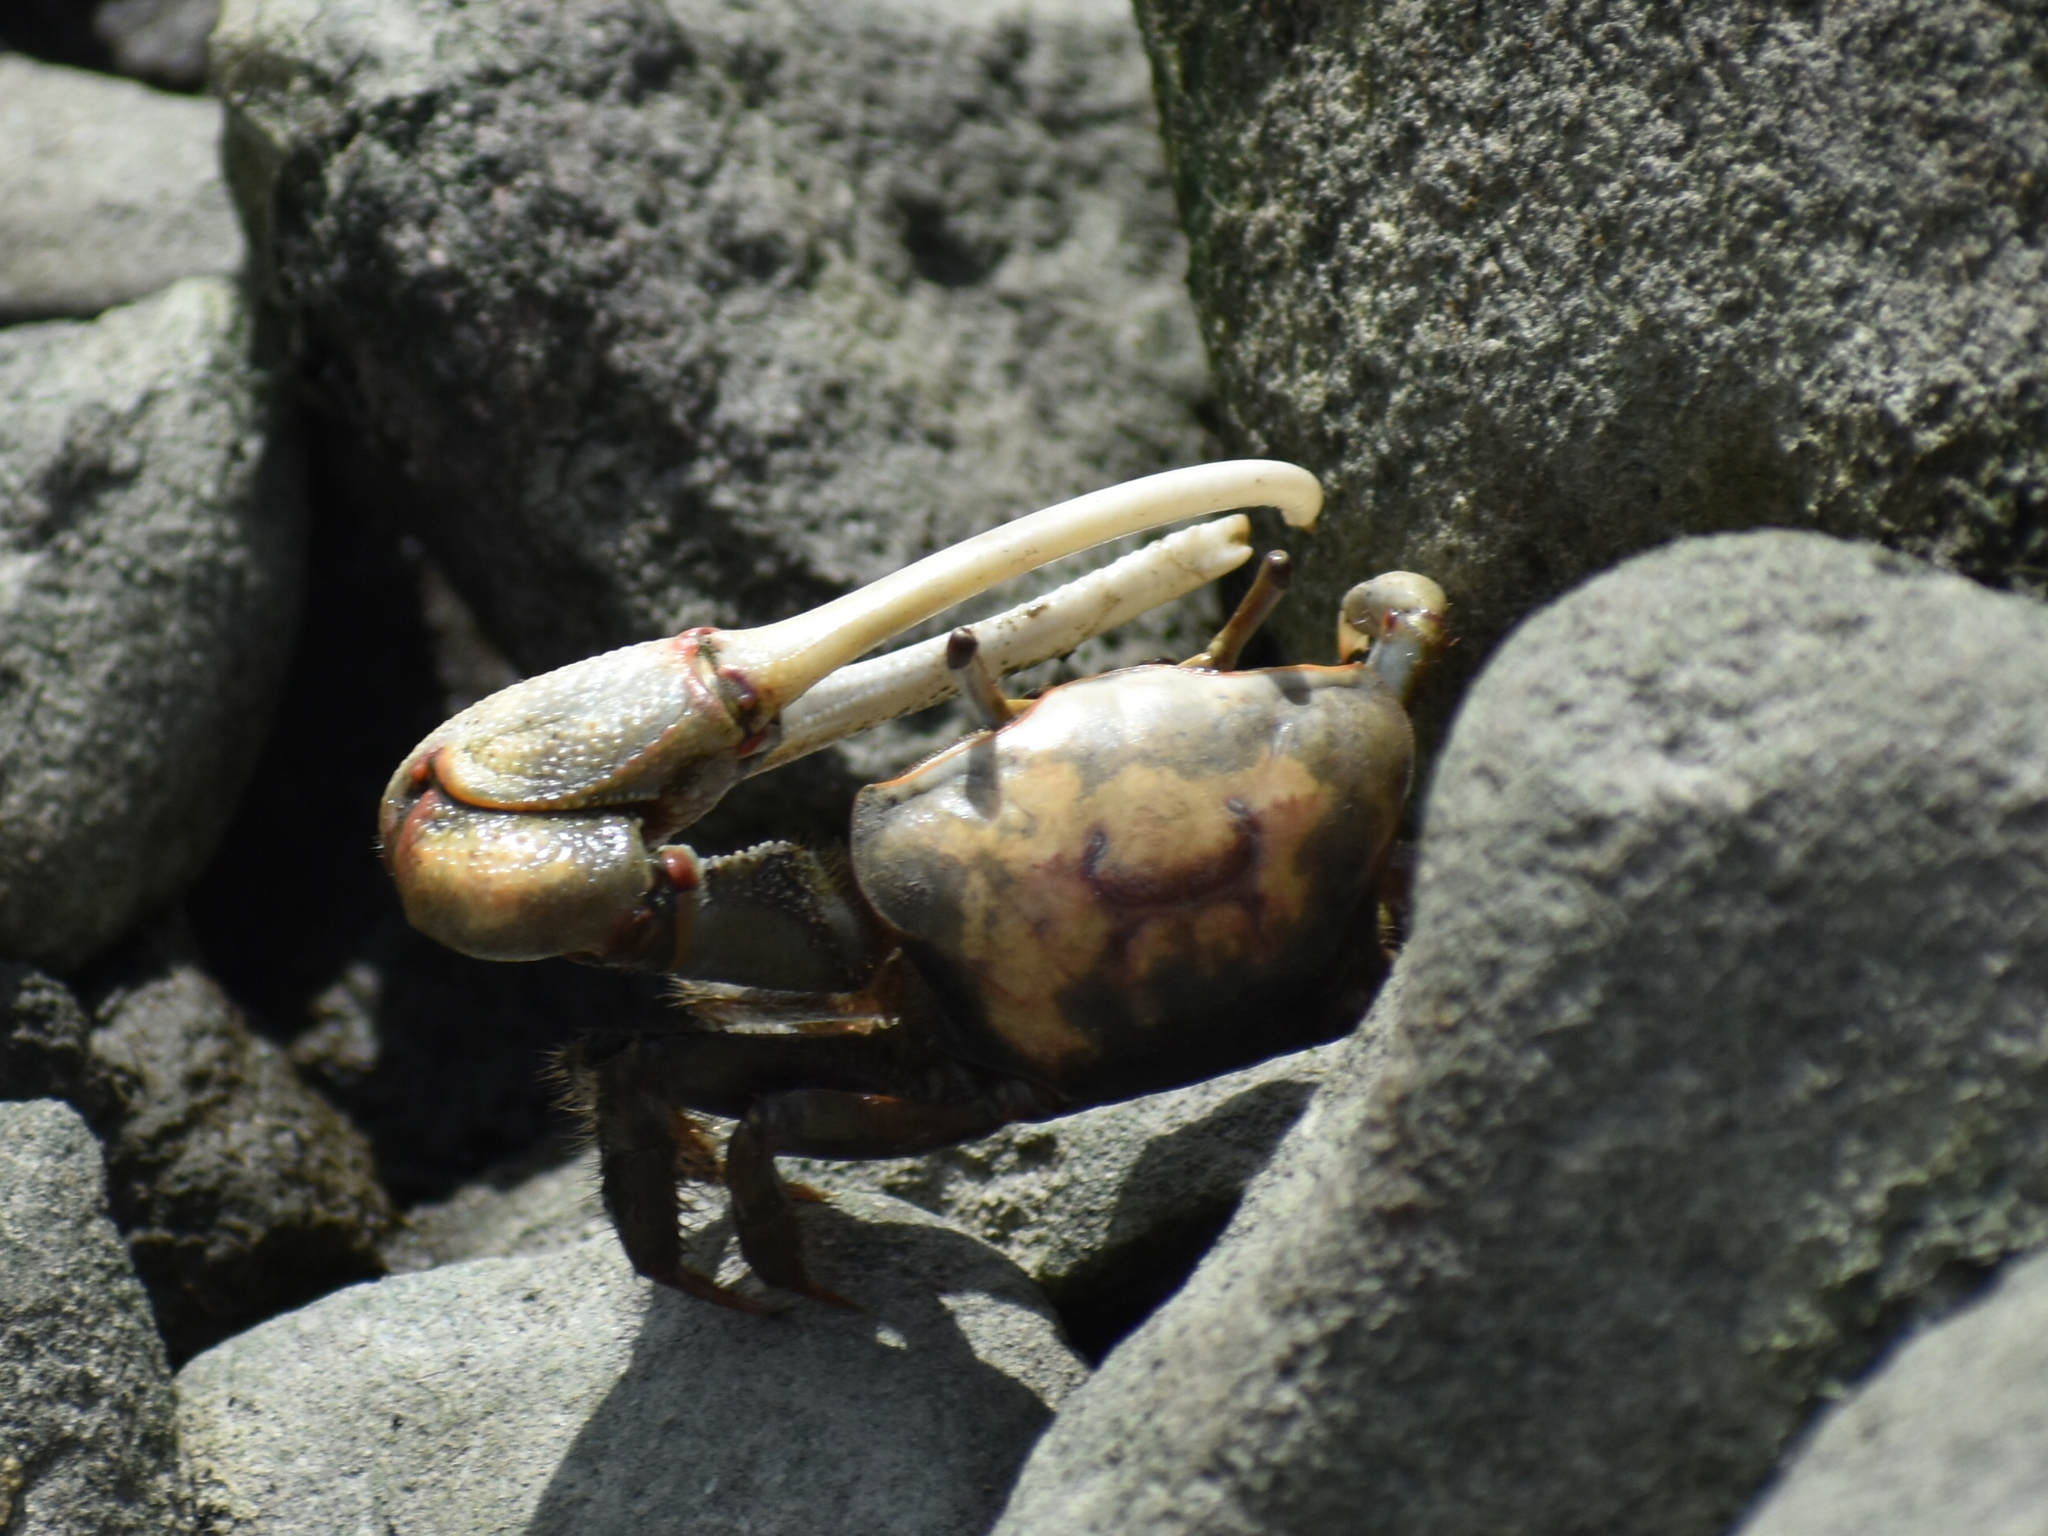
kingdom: Animalia
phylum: Arthropoda
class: Malacostraca
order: Decapoda
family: Ocypodidae
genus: Minuca
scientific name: Minuca minax
